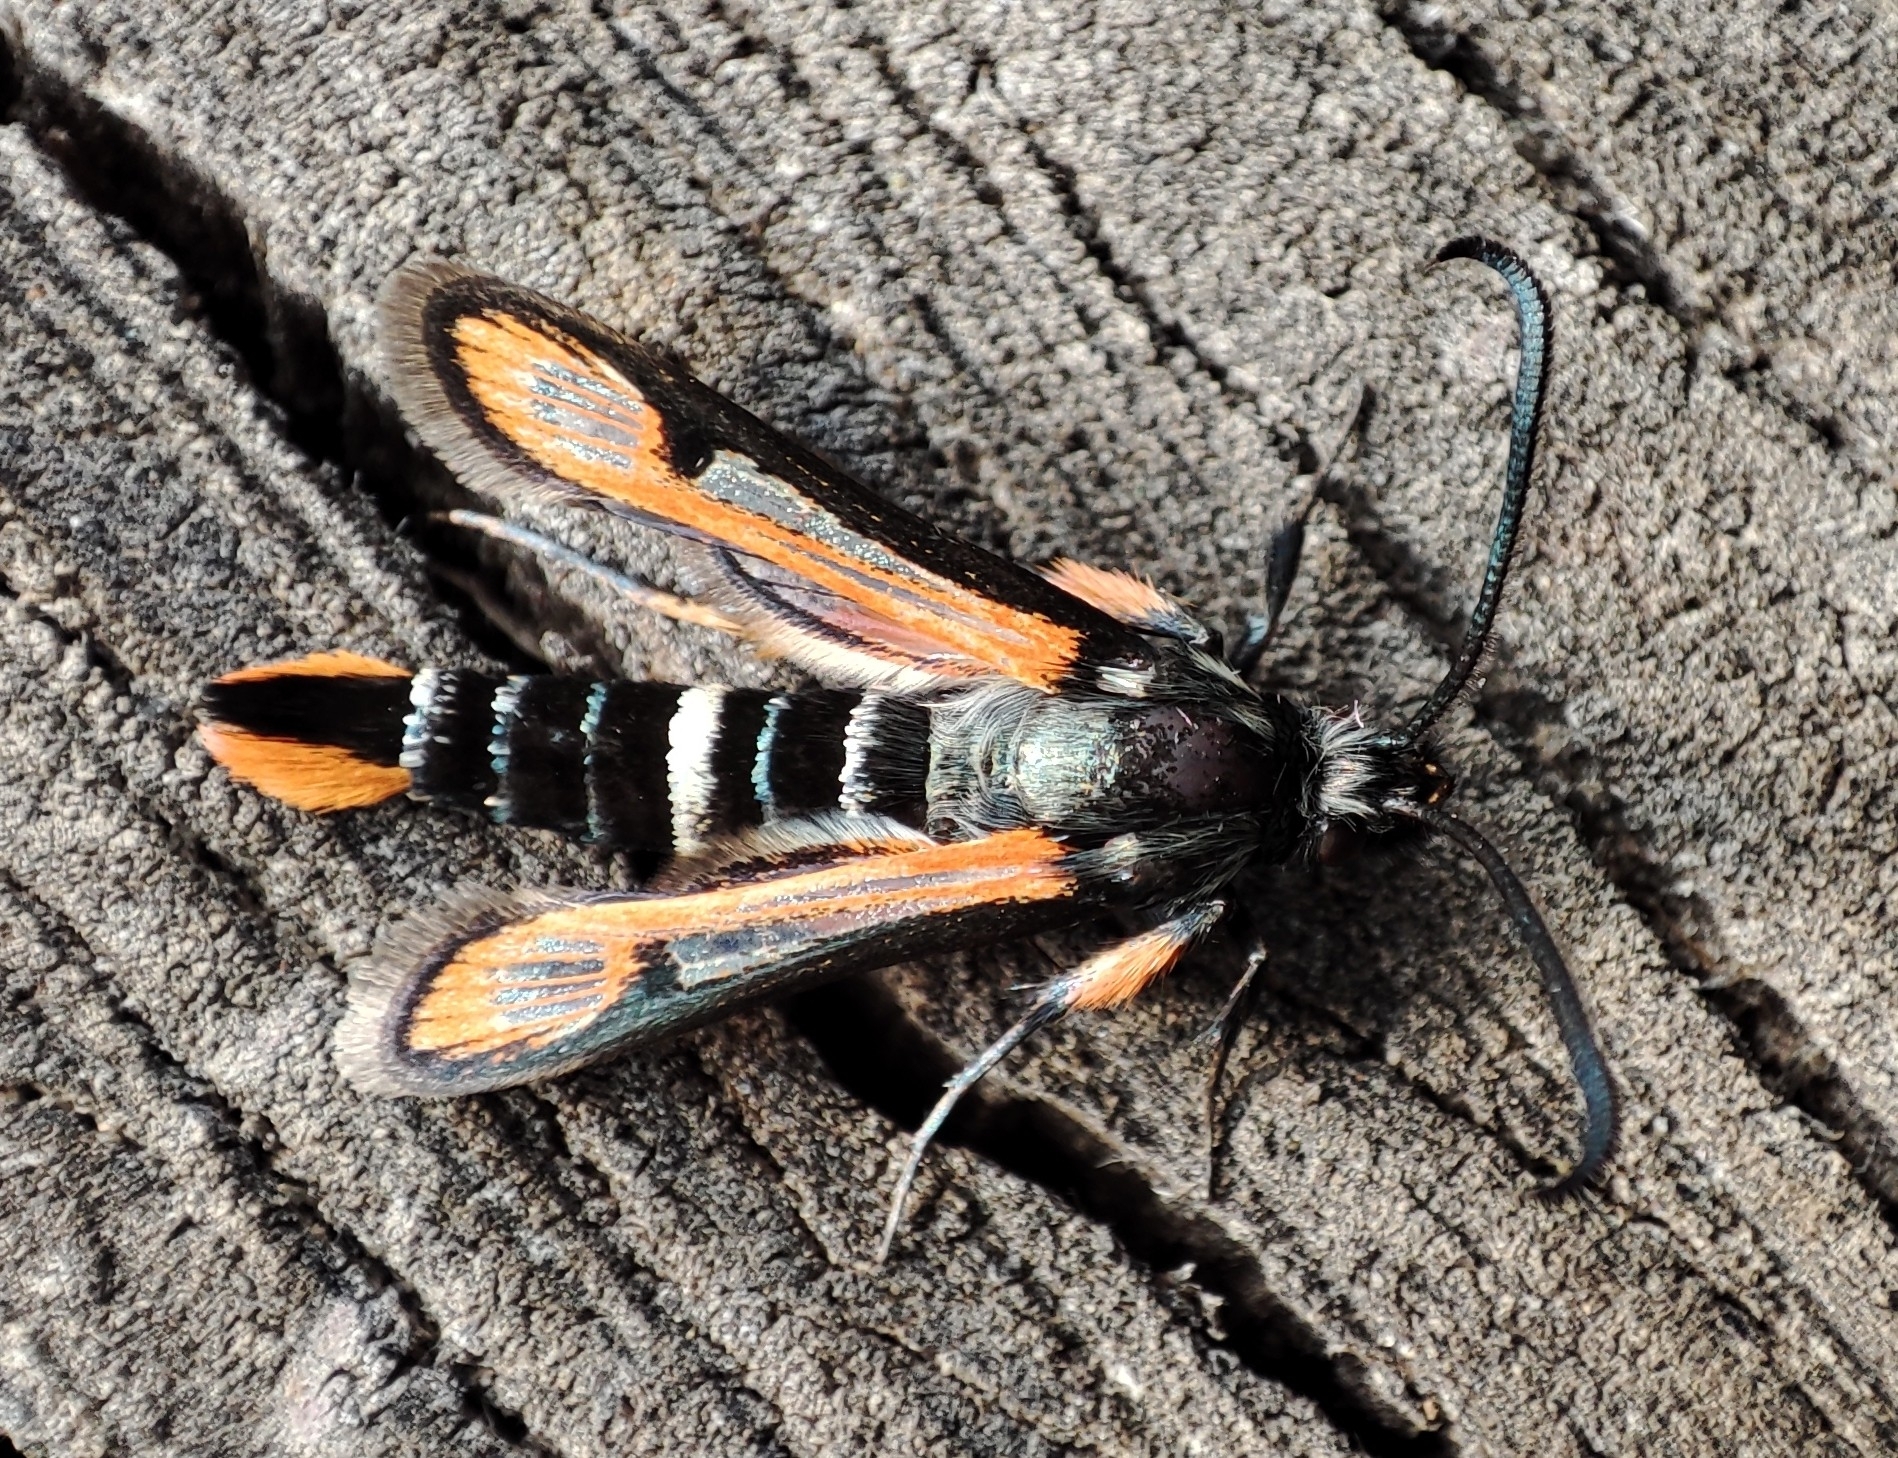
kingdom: Animalia
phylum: Arthropoda
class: Insecta
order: Lepidoptera
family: Sesiidae
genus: Bembecia
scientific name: Bembecia strandi
